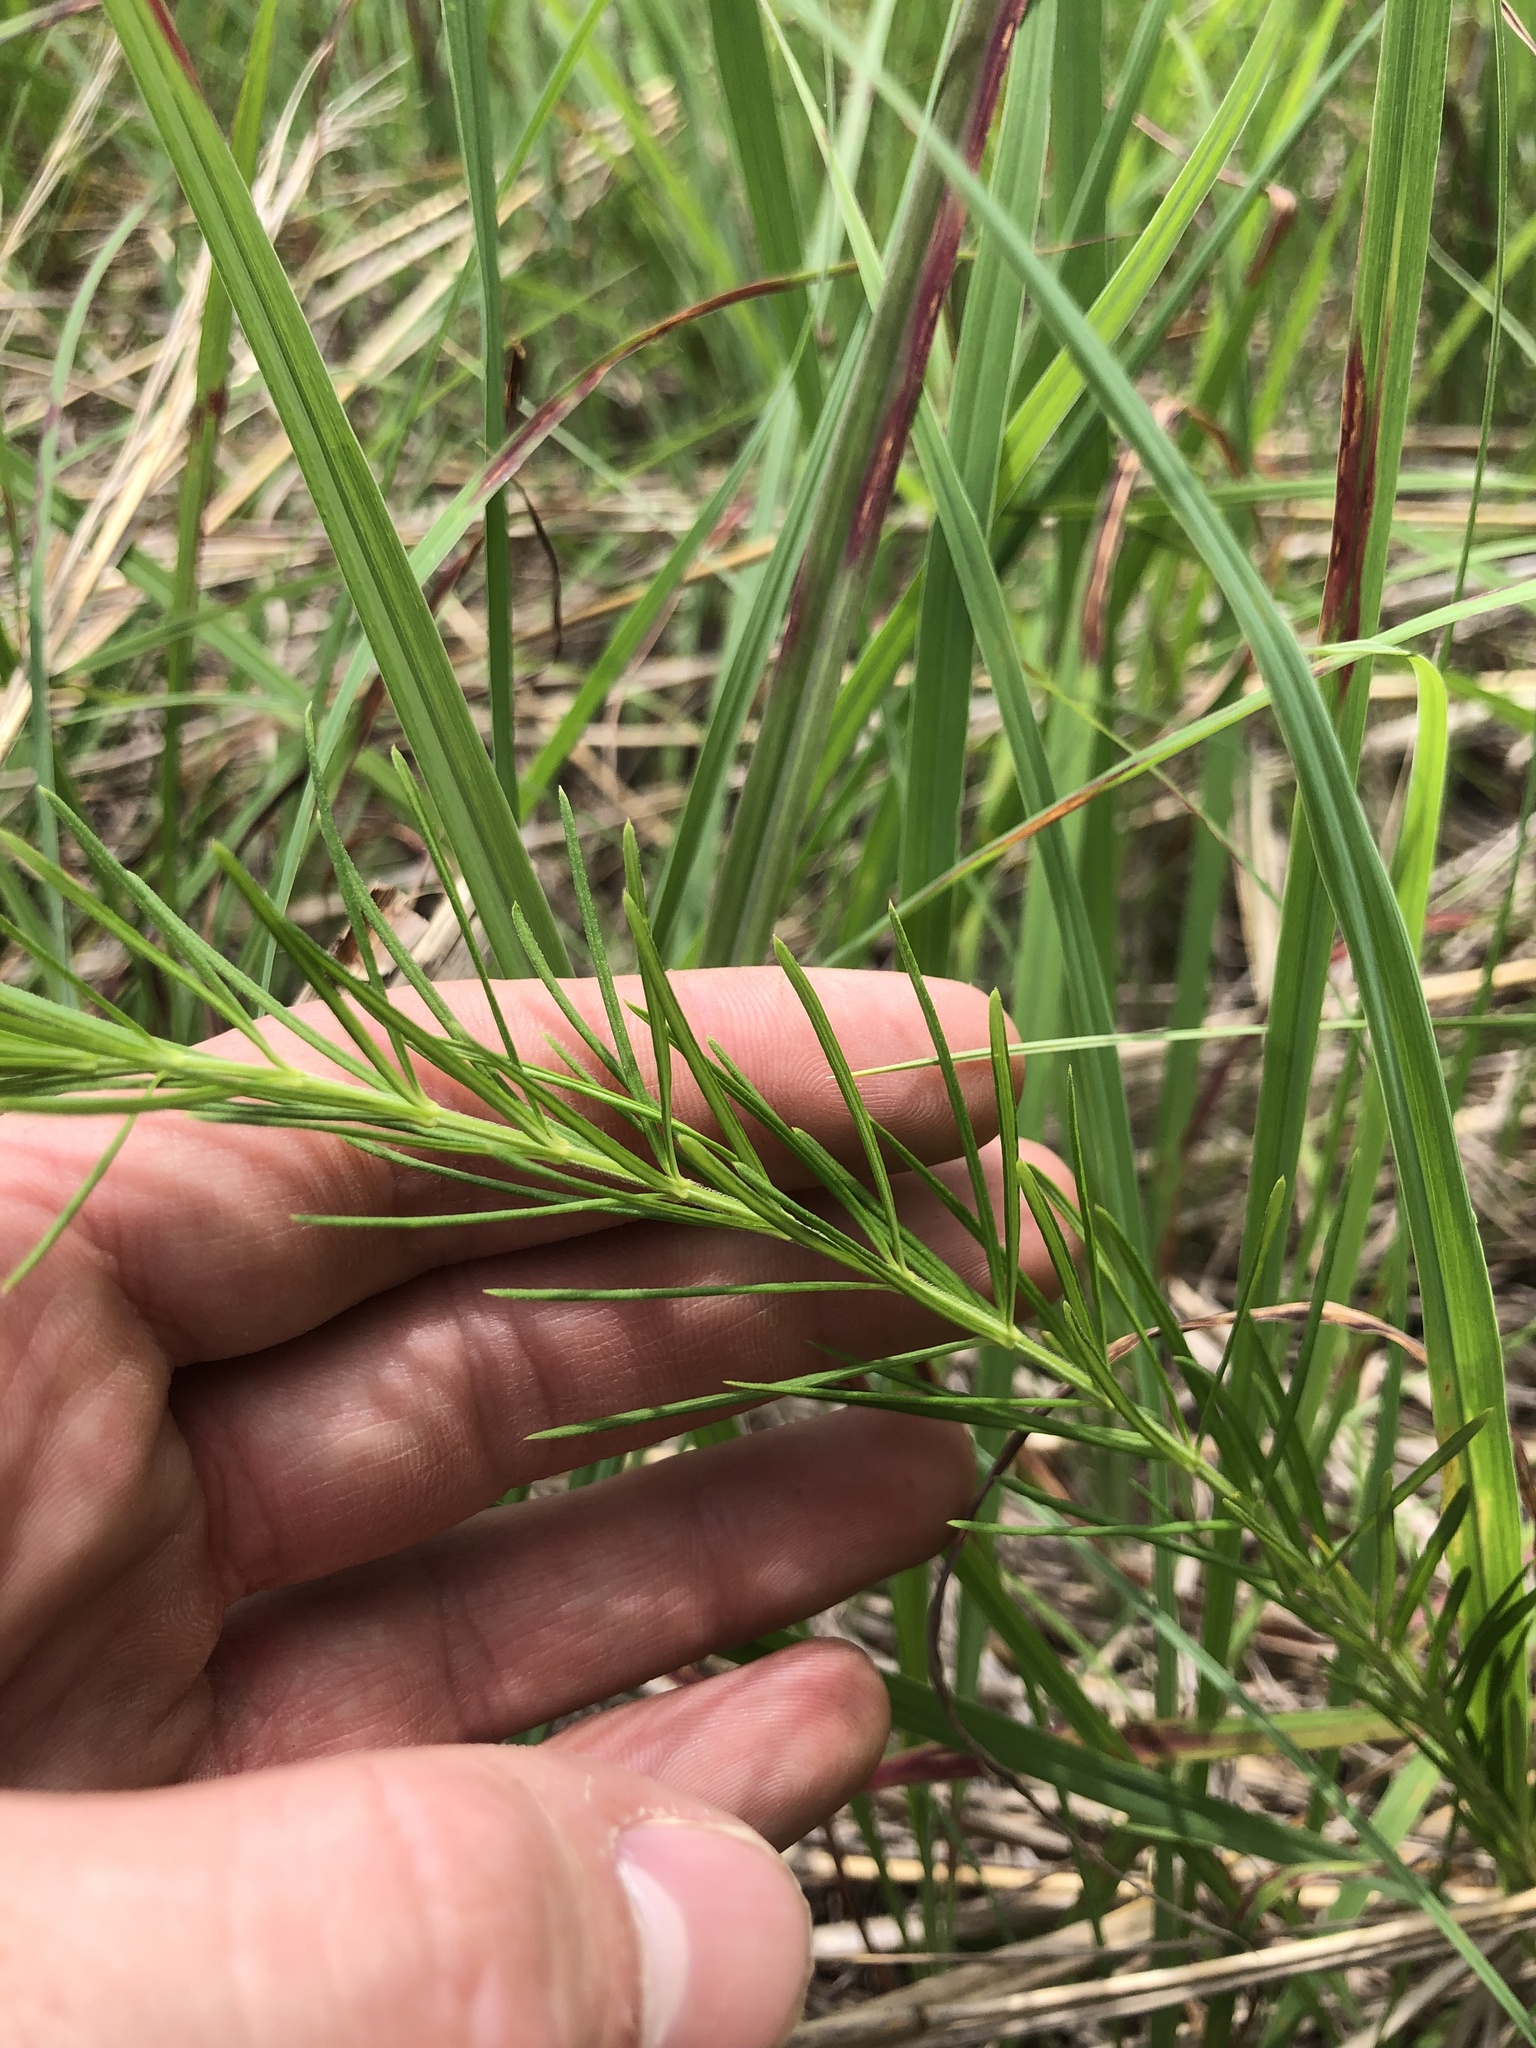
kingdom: Plantae
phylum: Tracheophyta
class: Magnoliopsida
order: Gentianales
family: Apocynaceae
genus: Asclepias
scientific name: Asclepias verticillata
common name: Eastern whorled milkweed
